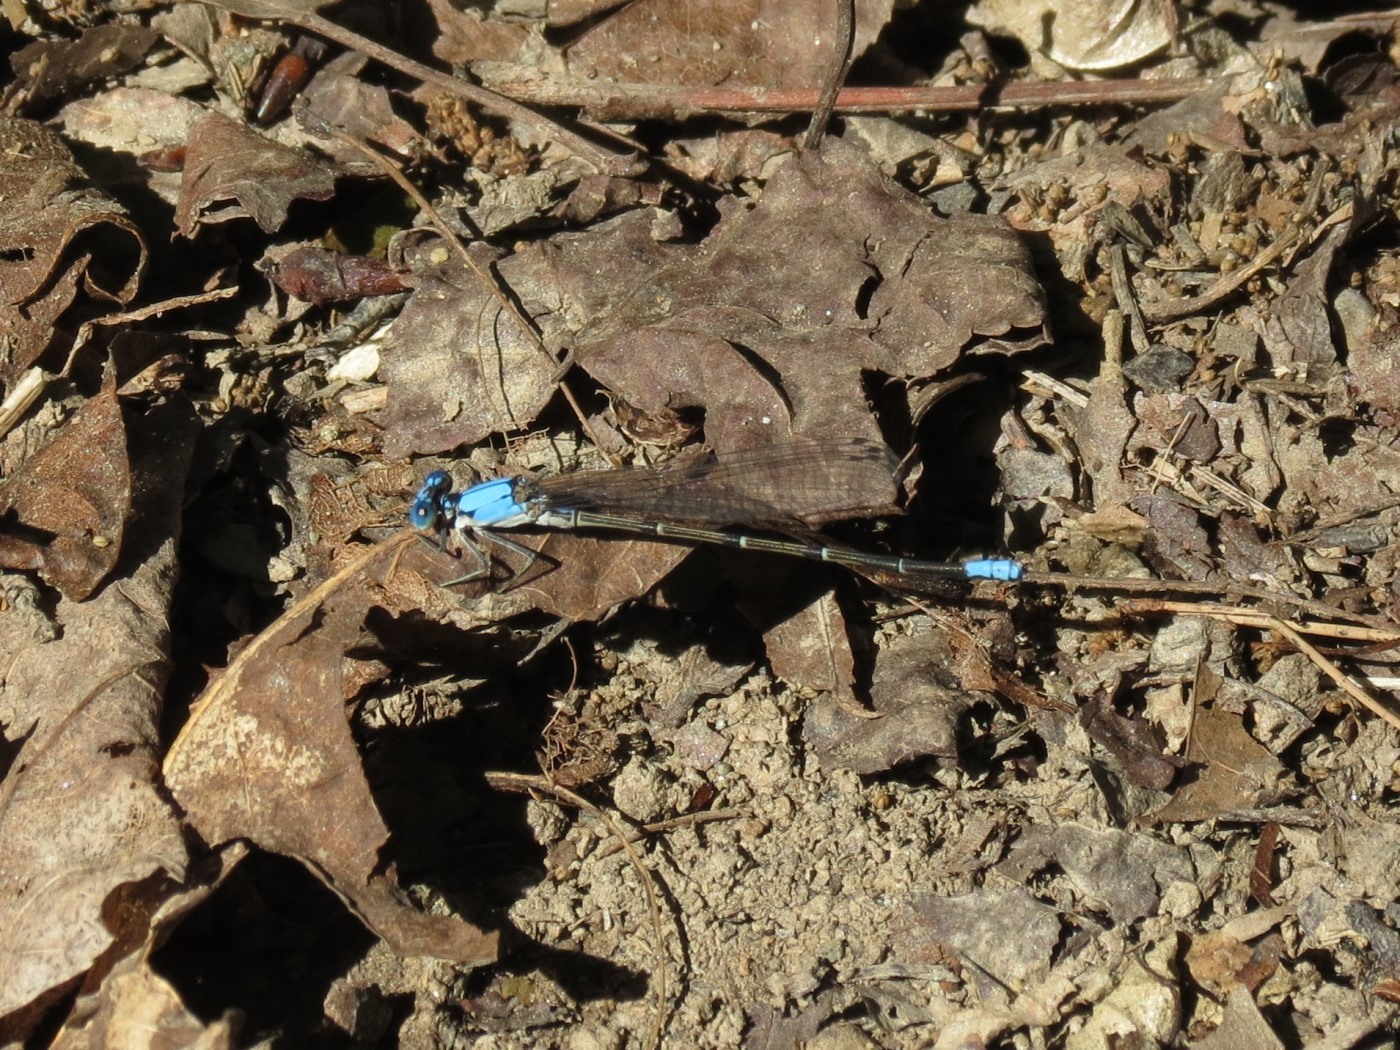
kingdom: Animalia
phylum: Arthropoda
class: Insecta
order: Odonata
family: Coenagrionidae
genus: Argia
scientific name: Argia apicalis
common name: Blue-fronted dancer
